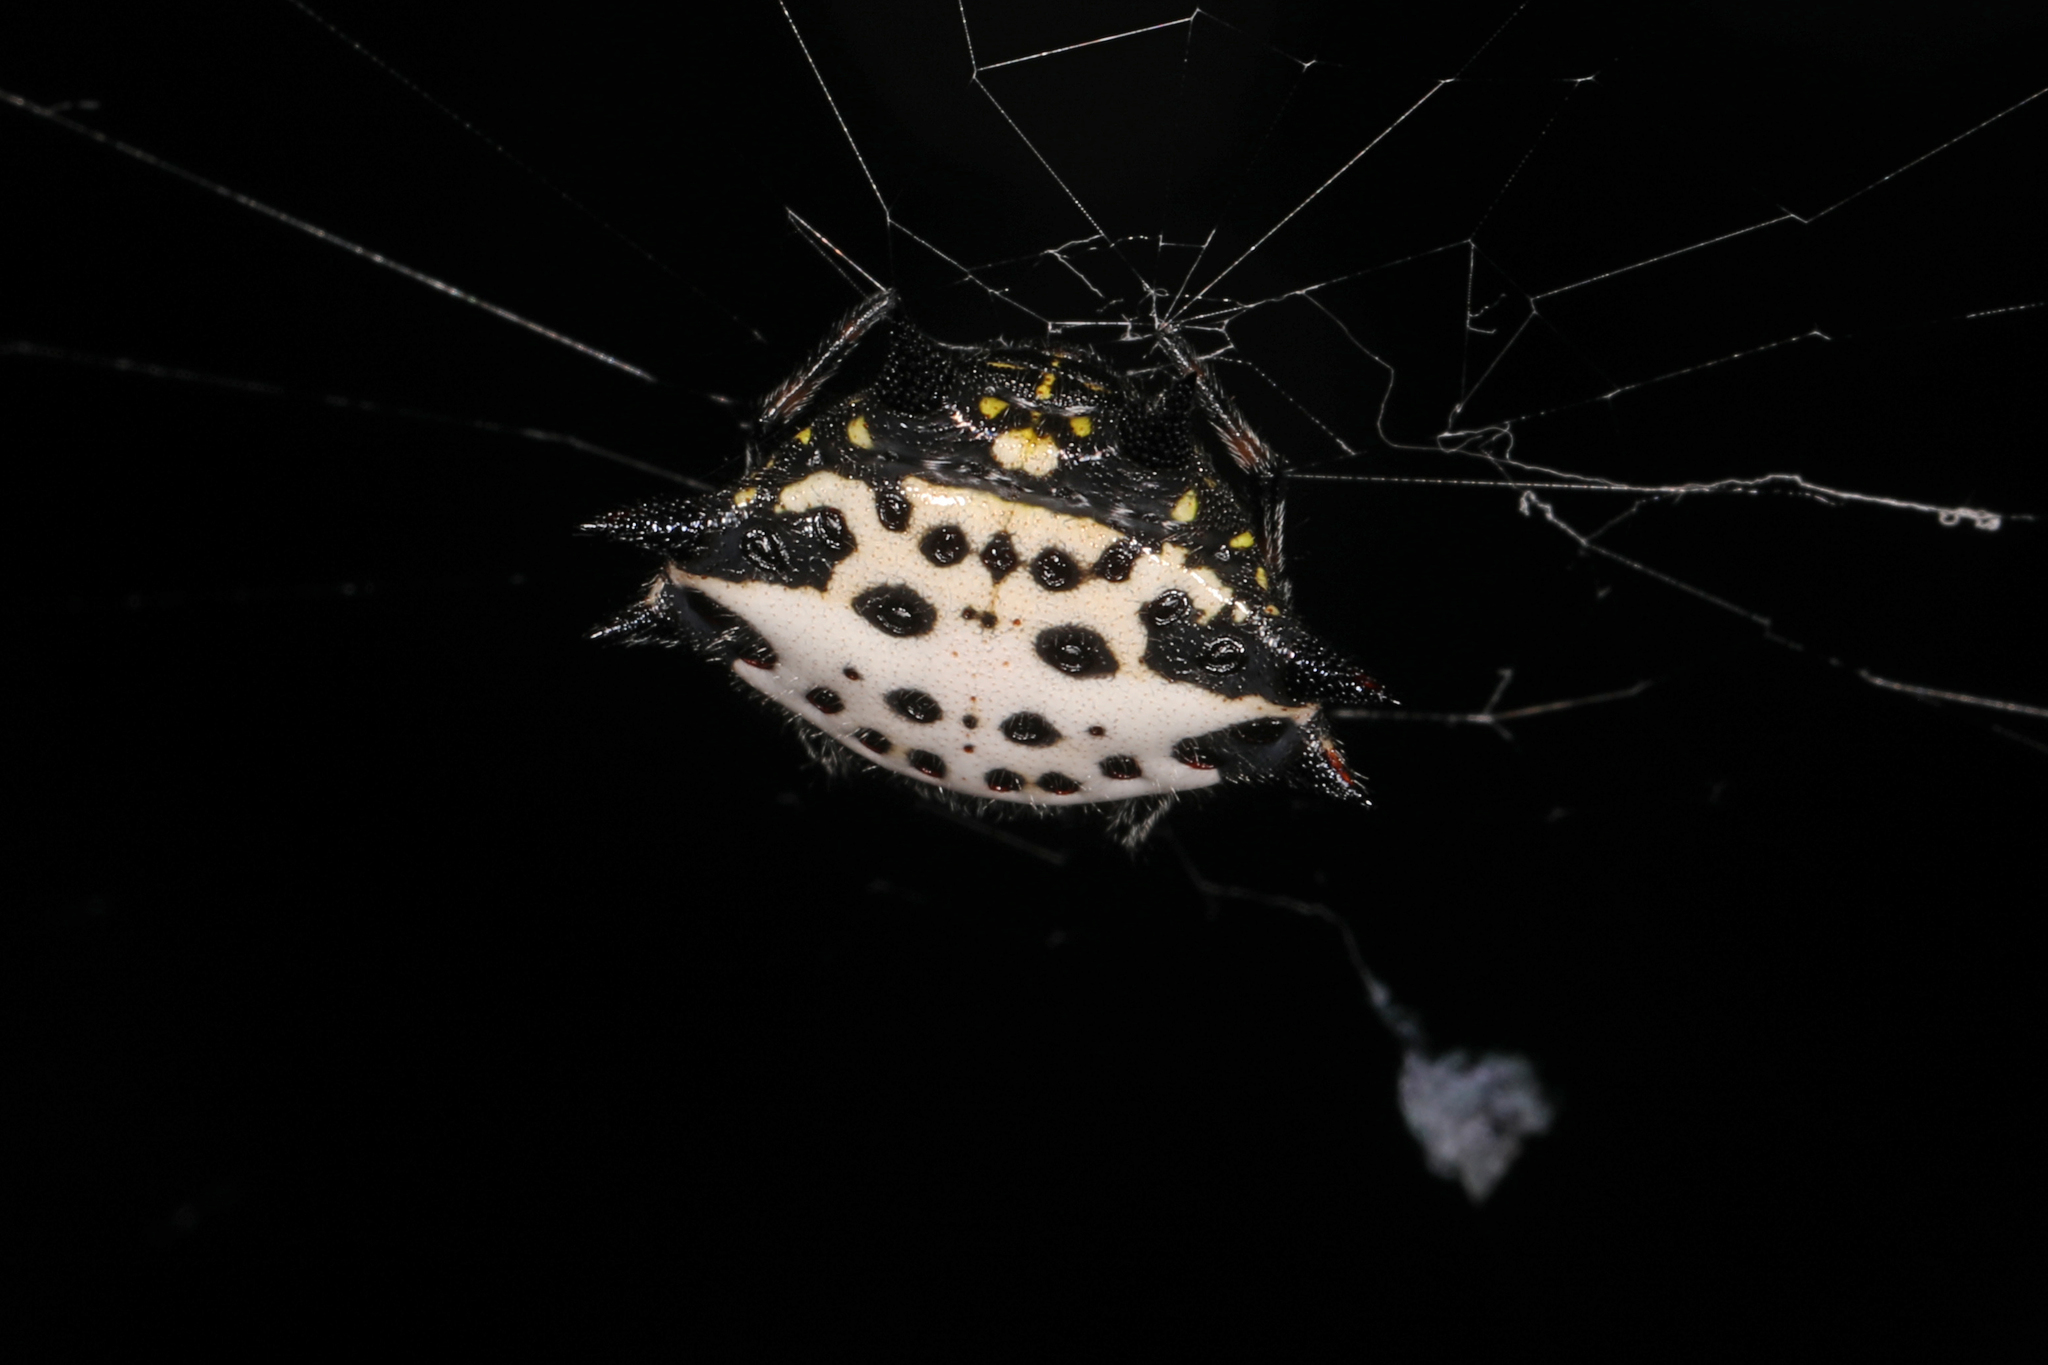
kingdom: Animalia
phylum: Arthropoda
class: Arachnida
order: Araneae
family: Araneidae
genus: Gasteracantha
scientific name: Gasteracantha cancriformis
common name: Orb weavers
